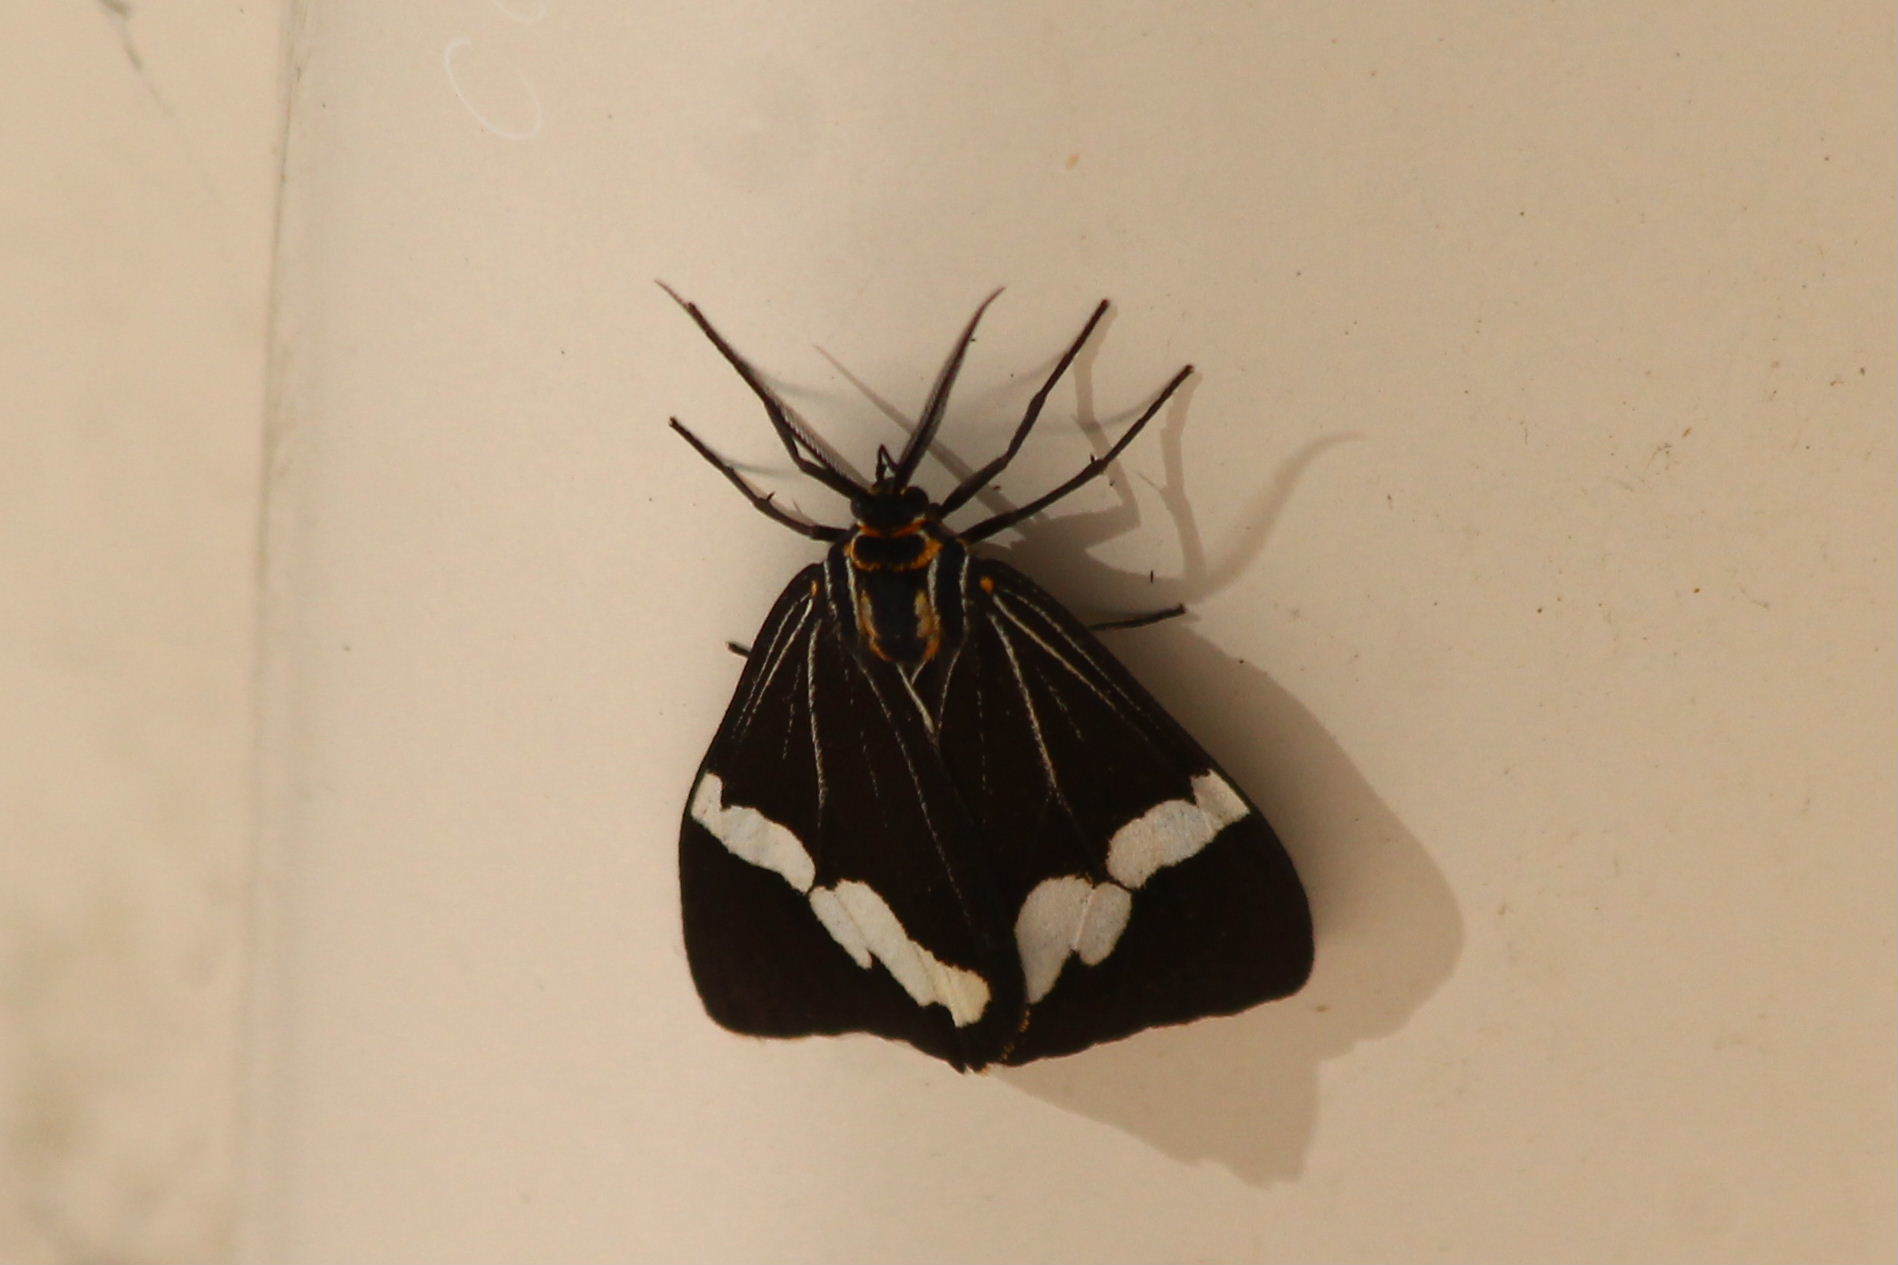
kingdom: Animalia
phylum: Arthropoda
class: Insecta
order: Lepidoptera
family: Erebidae
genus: Nyctemera
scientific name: Nyctemera amicus
